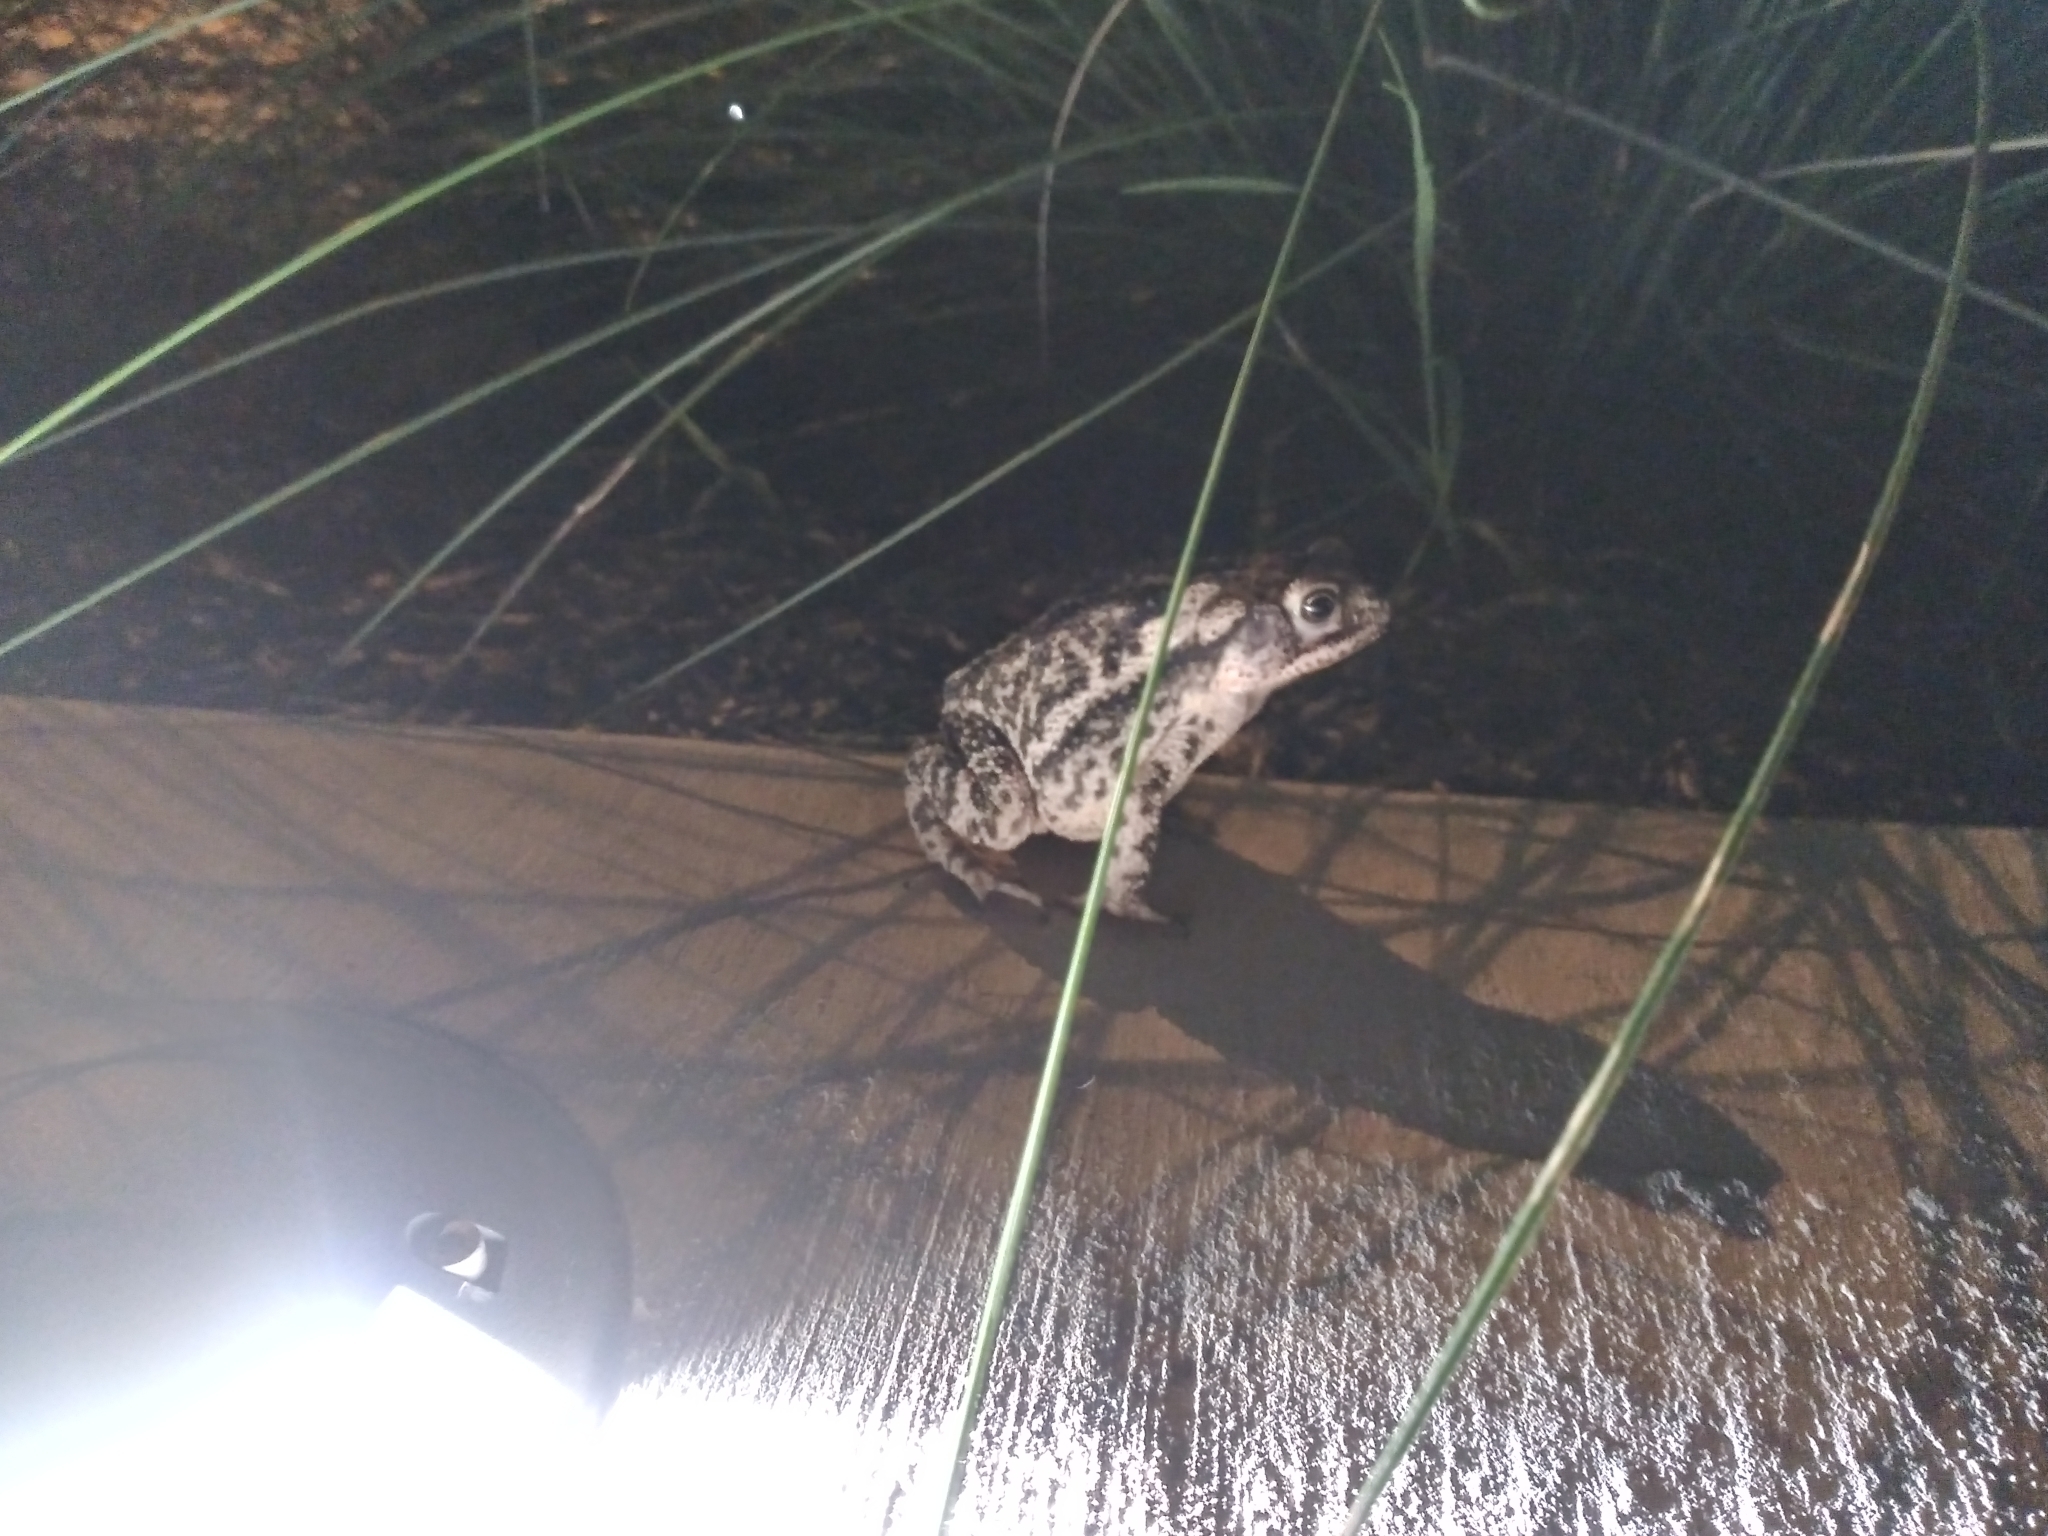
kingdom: Animalia
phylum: Chordata
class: Amphibia
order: Anura
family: Bufonidae
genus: Incilius
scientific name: Incilius nebulifer
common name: Gulf coast toad
